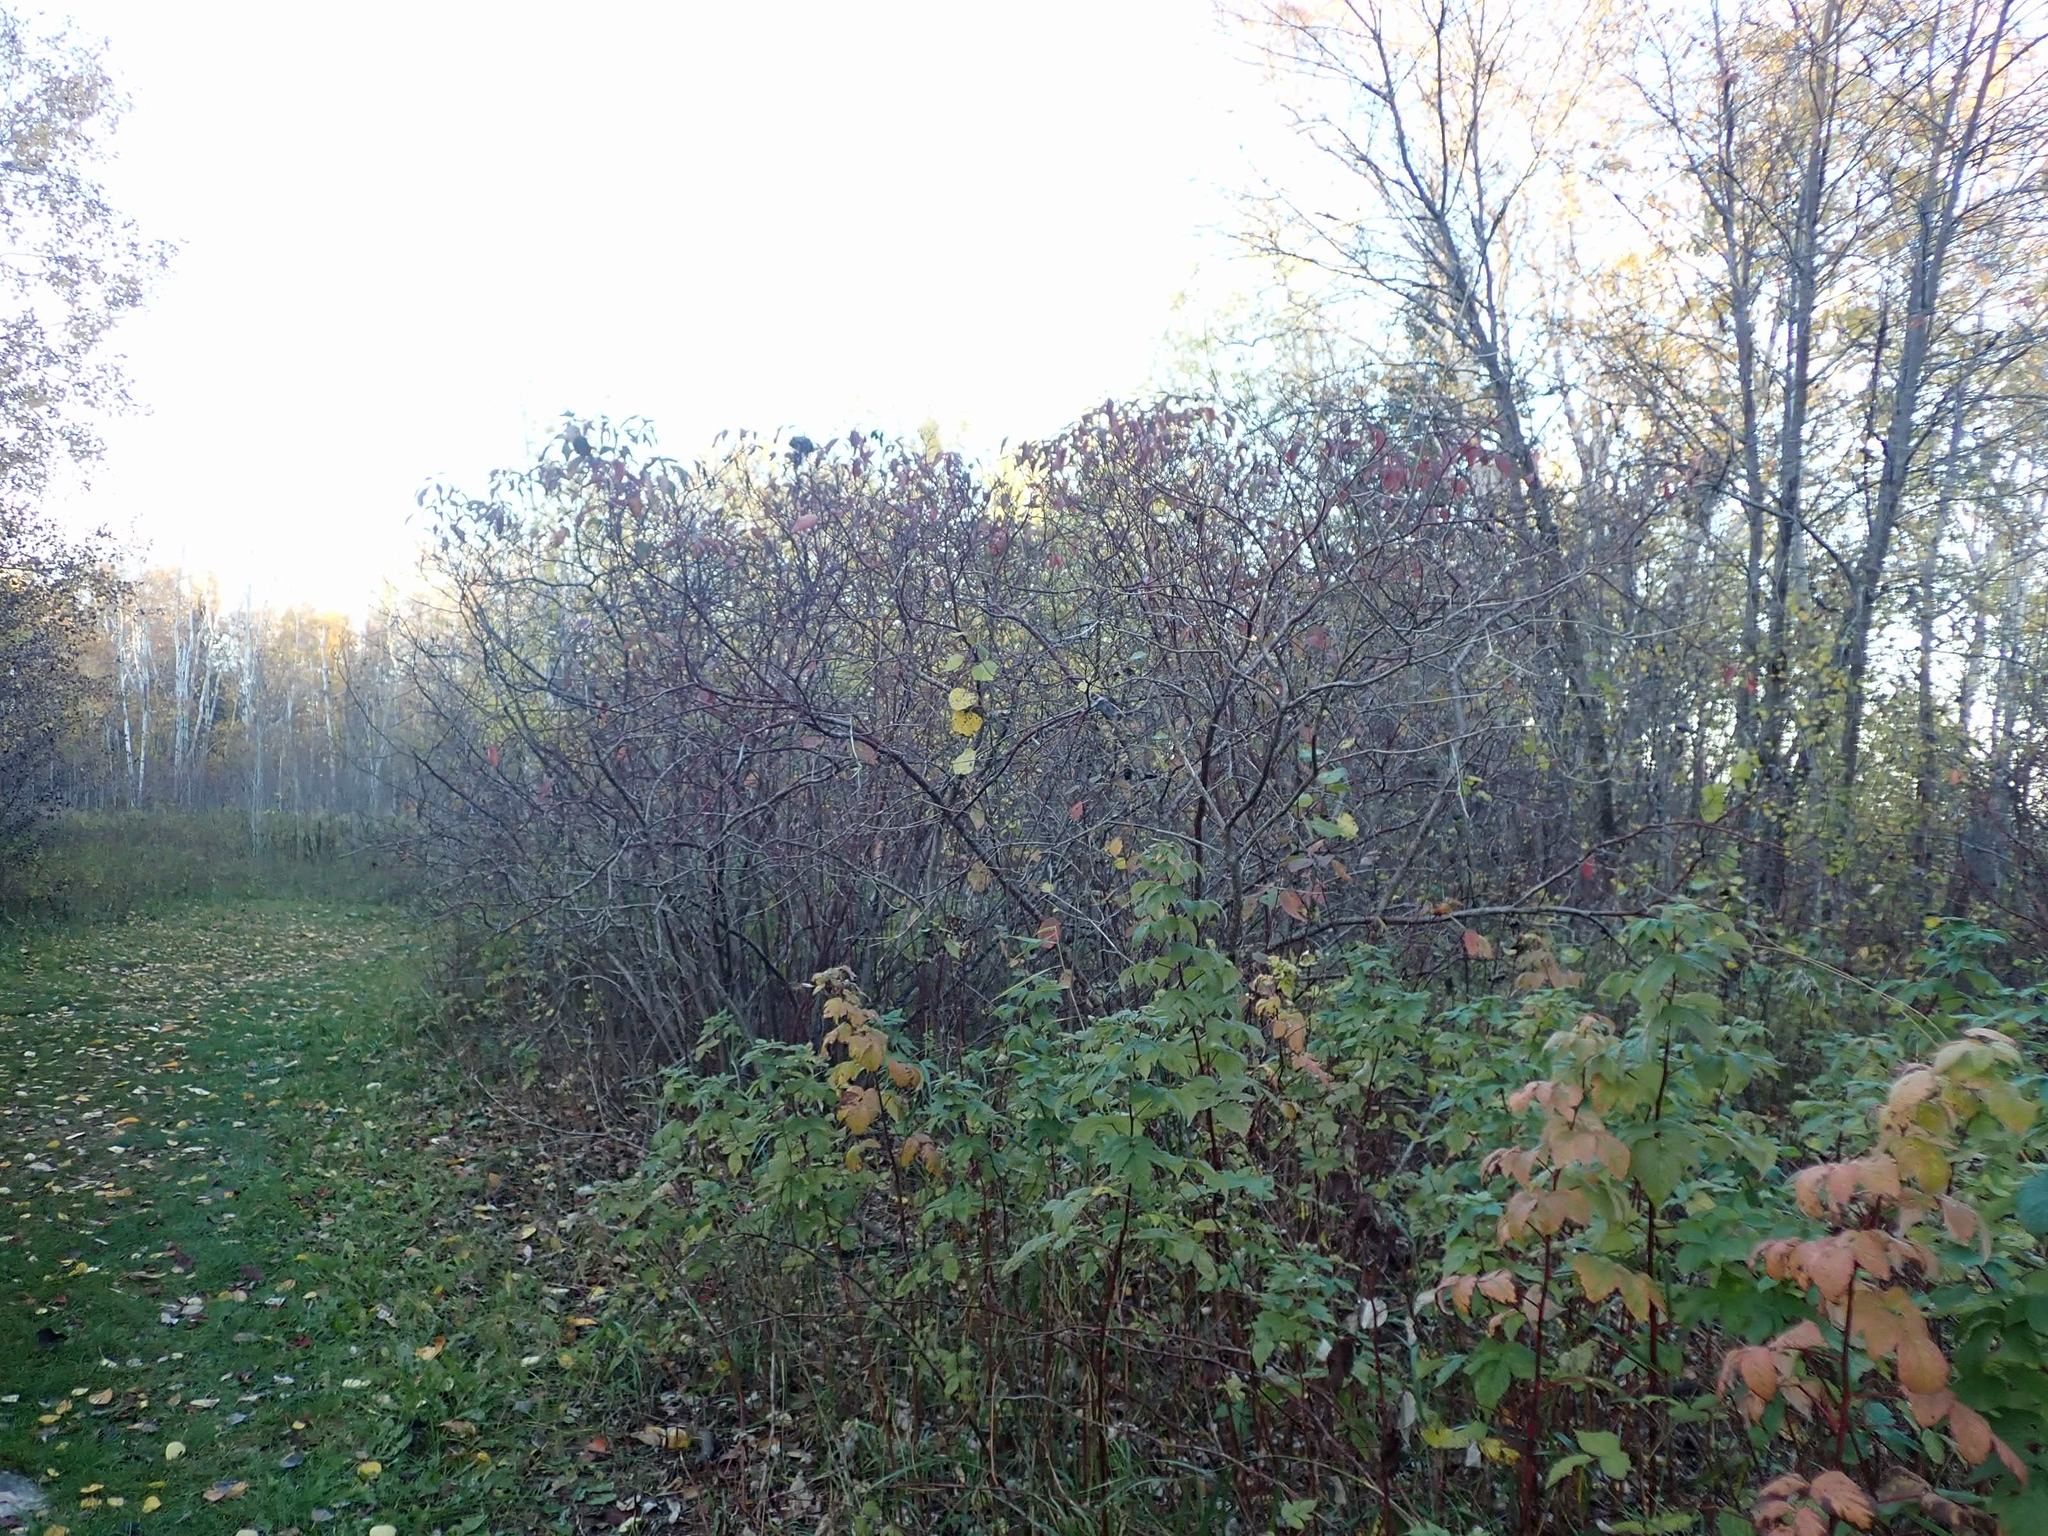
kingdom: Plantae
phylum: Tracheophyta
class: Magnoliopsida
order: Rosales
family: Rosaceae
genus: Rubus
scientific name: Rubus idaeus
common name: Raspberry
